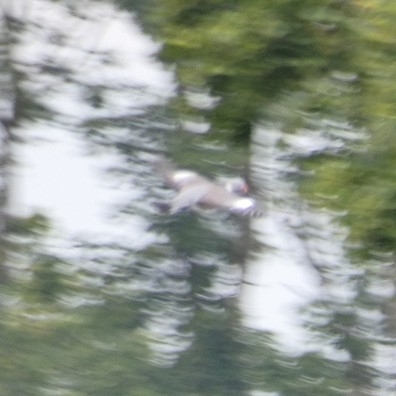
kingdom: Animalia
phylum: Chordata
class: Aves
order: Columbiformes
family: Columbidae
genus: Columba
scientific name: Columba palumbus
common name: Common wood pigeon
